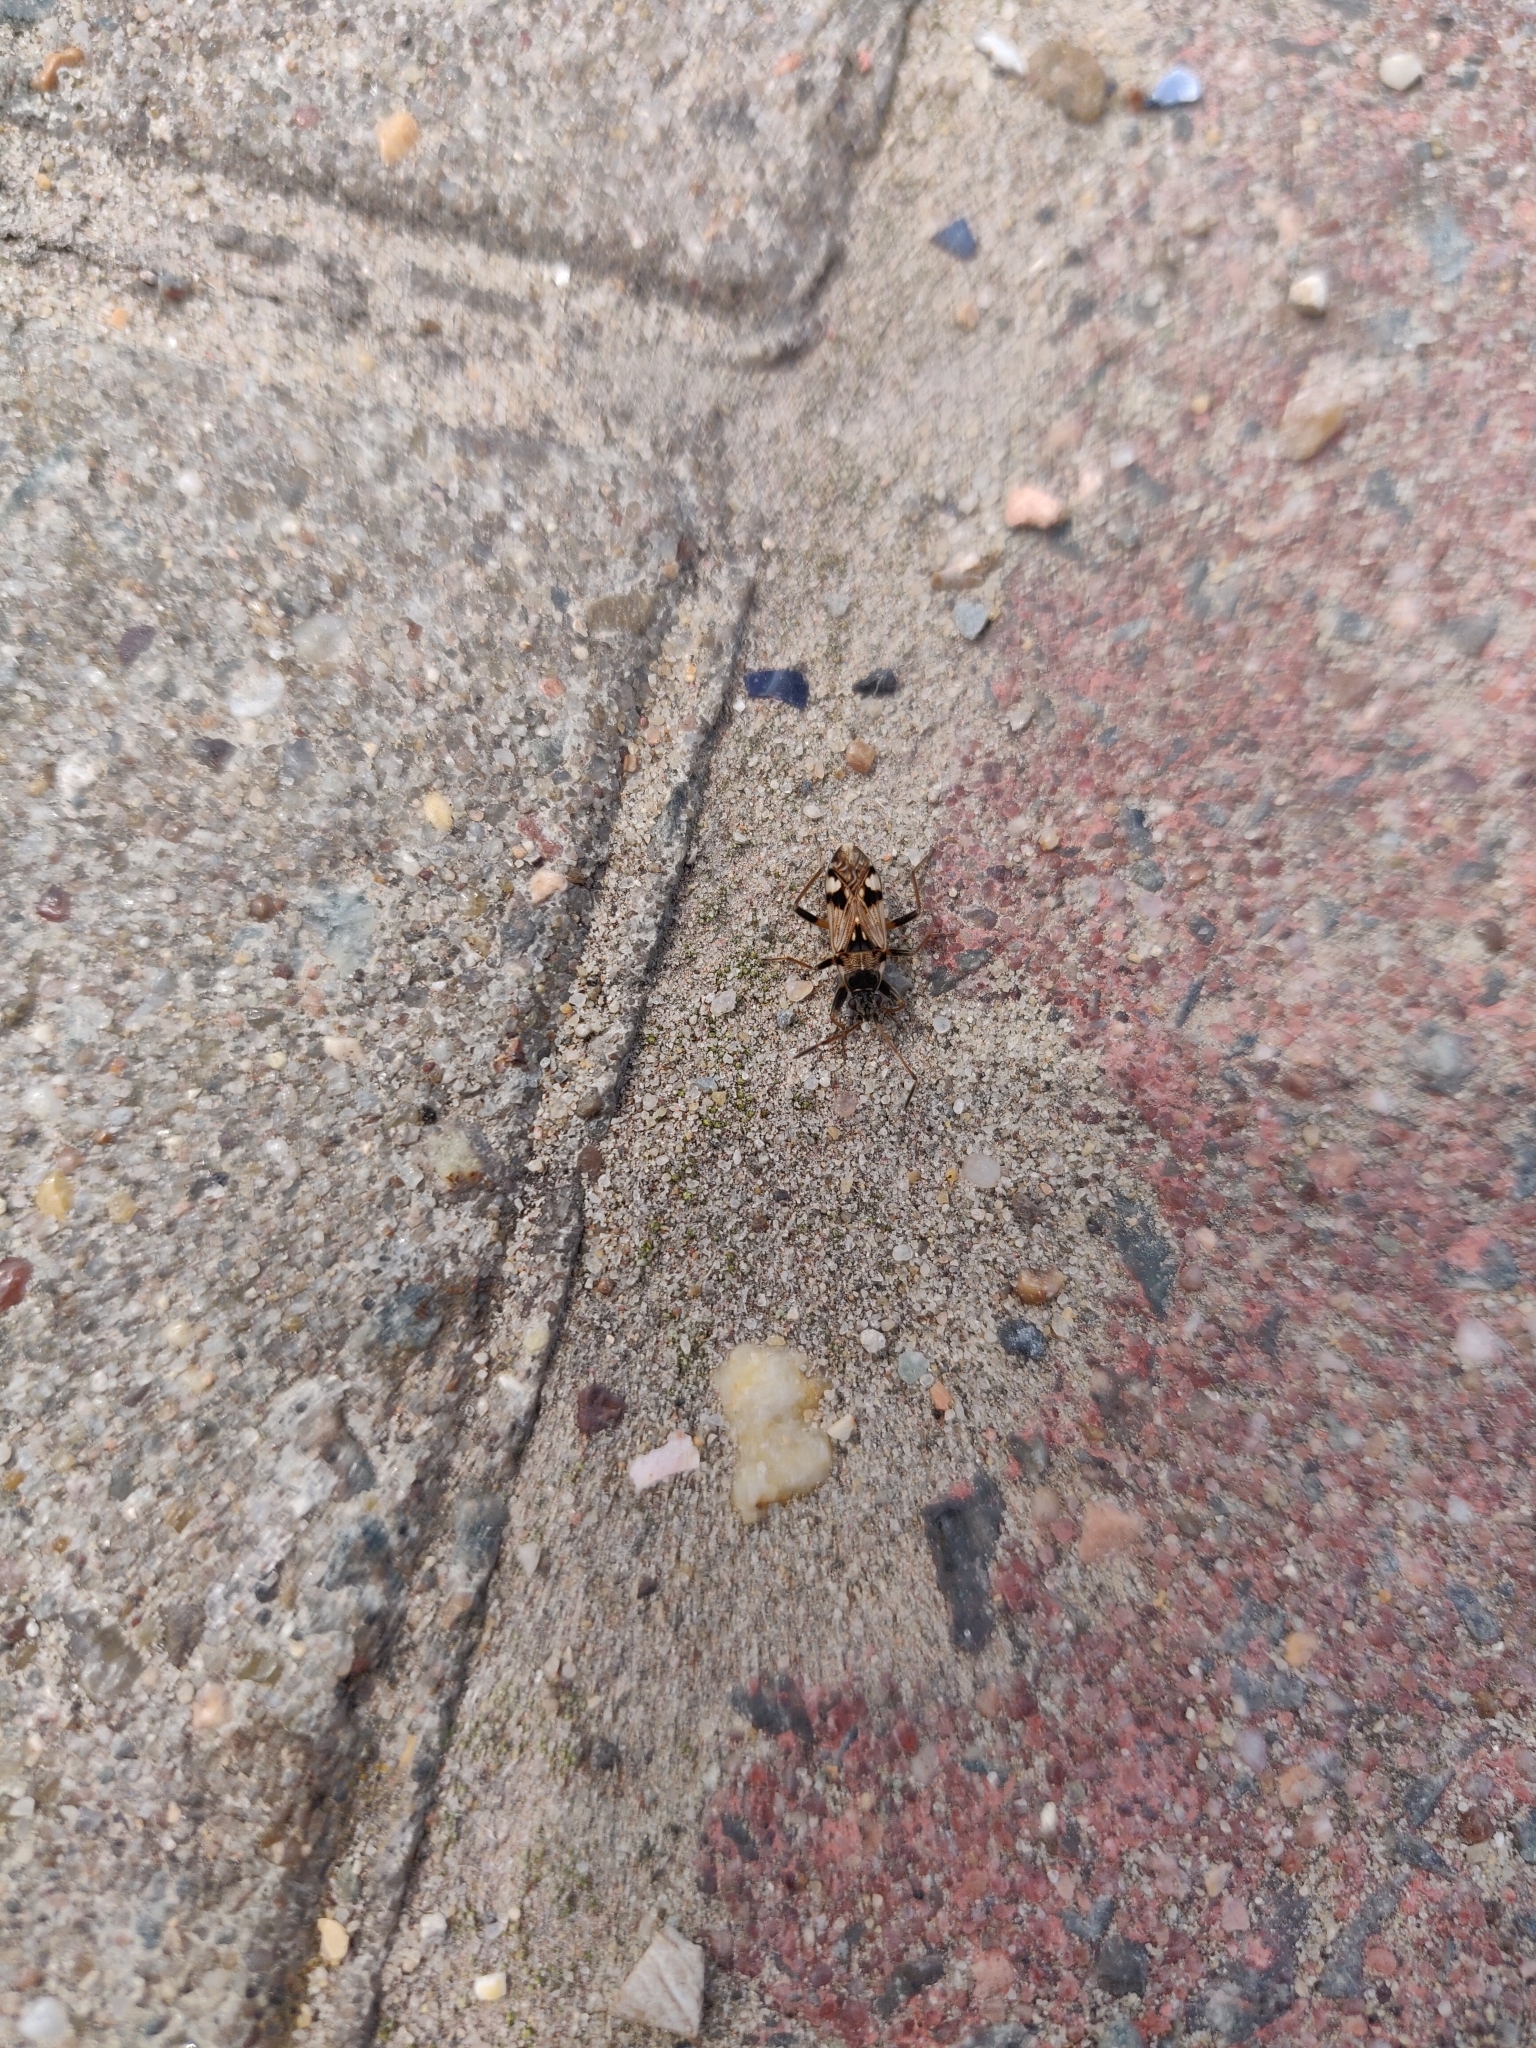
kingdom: Animalia
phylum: Arthropoda
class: Insecta
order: Hemiptera
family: Rhyparochromidae
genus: Beosus
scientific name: Beosus maritimus
